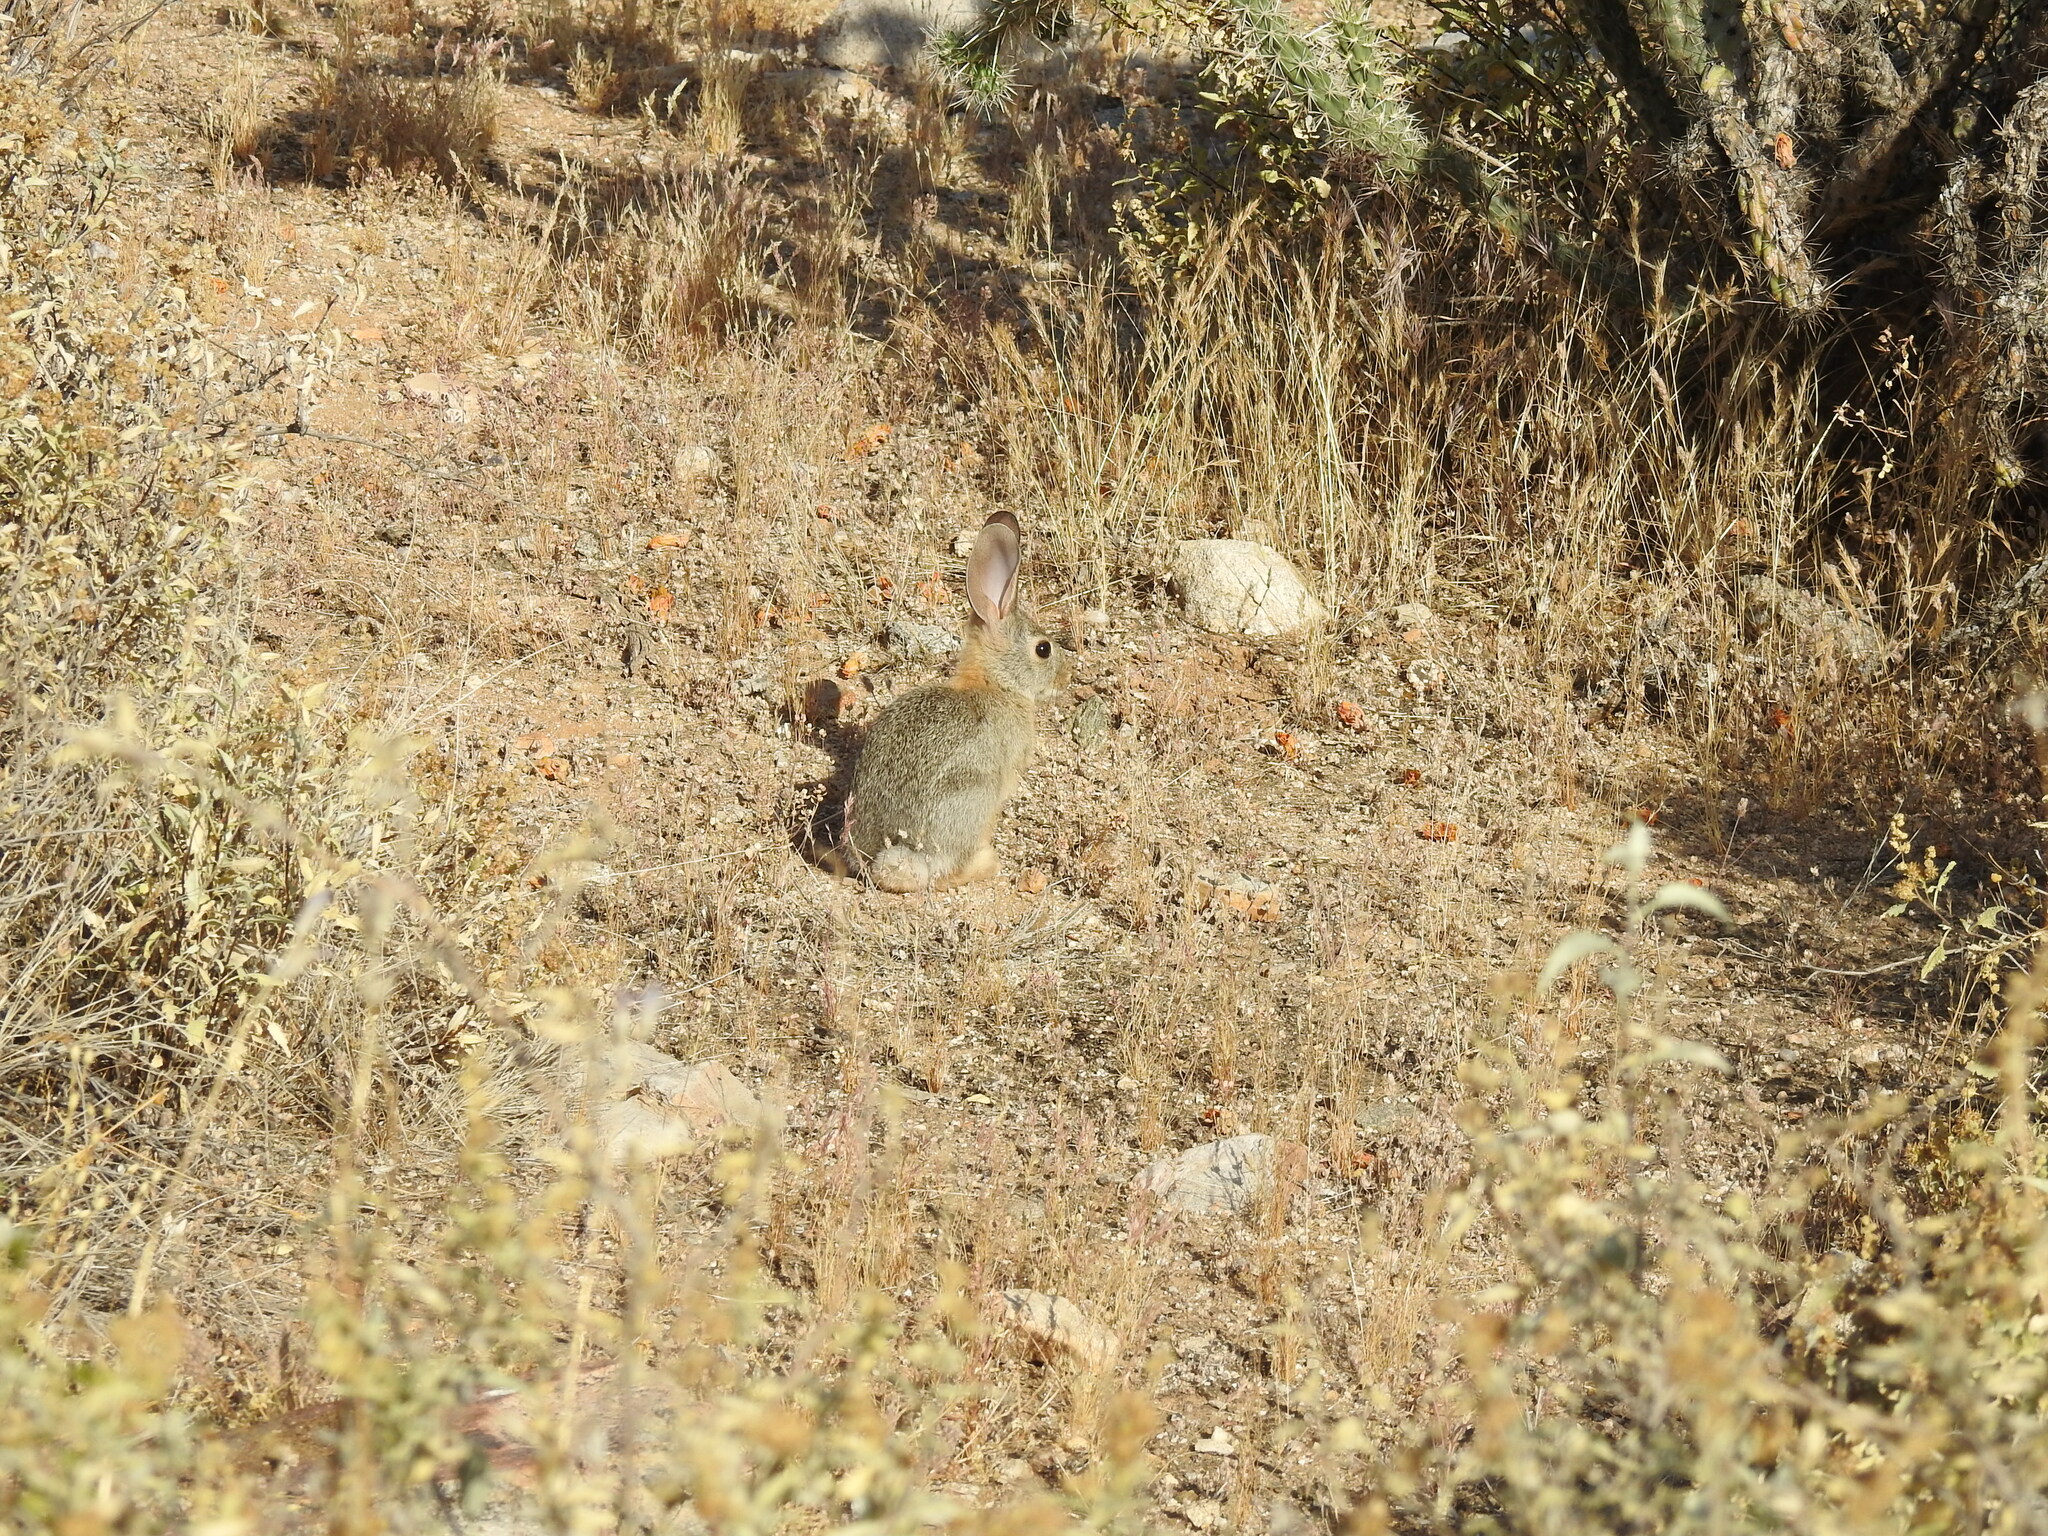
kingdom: Animalia
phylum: Chordata
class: Mammalia
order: Lagomorpha
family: Leporidae
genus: Sylvilagus
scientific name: Sylvilagus audubonii
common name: Desert cottontail
